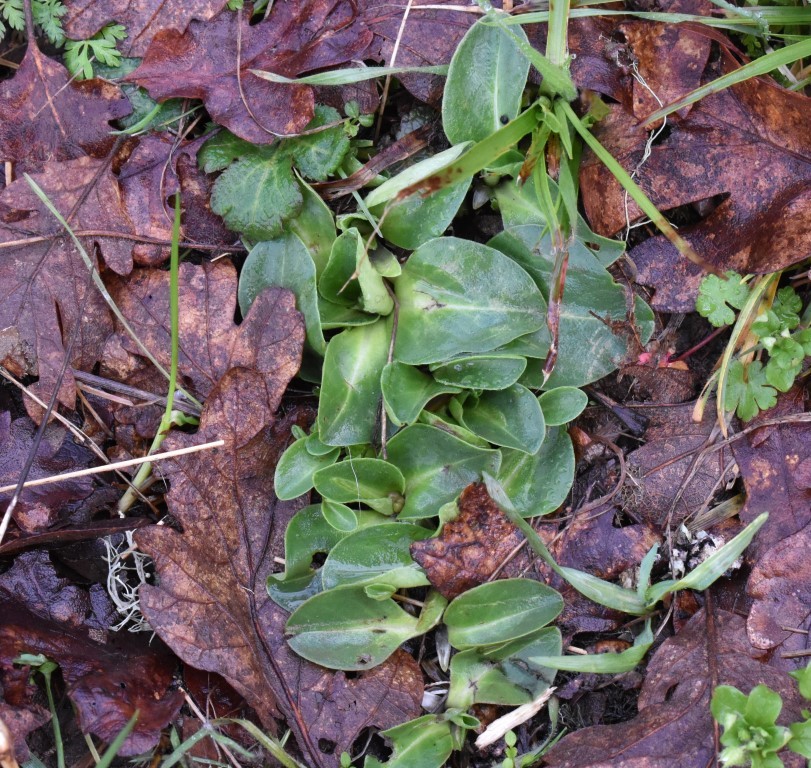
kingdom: Plantae
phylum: Tracheophyta
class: Magnoliopsida
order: Ericales
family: Primulaceae
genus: Dodecatheon
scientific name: Dodecatheon hendersonii
